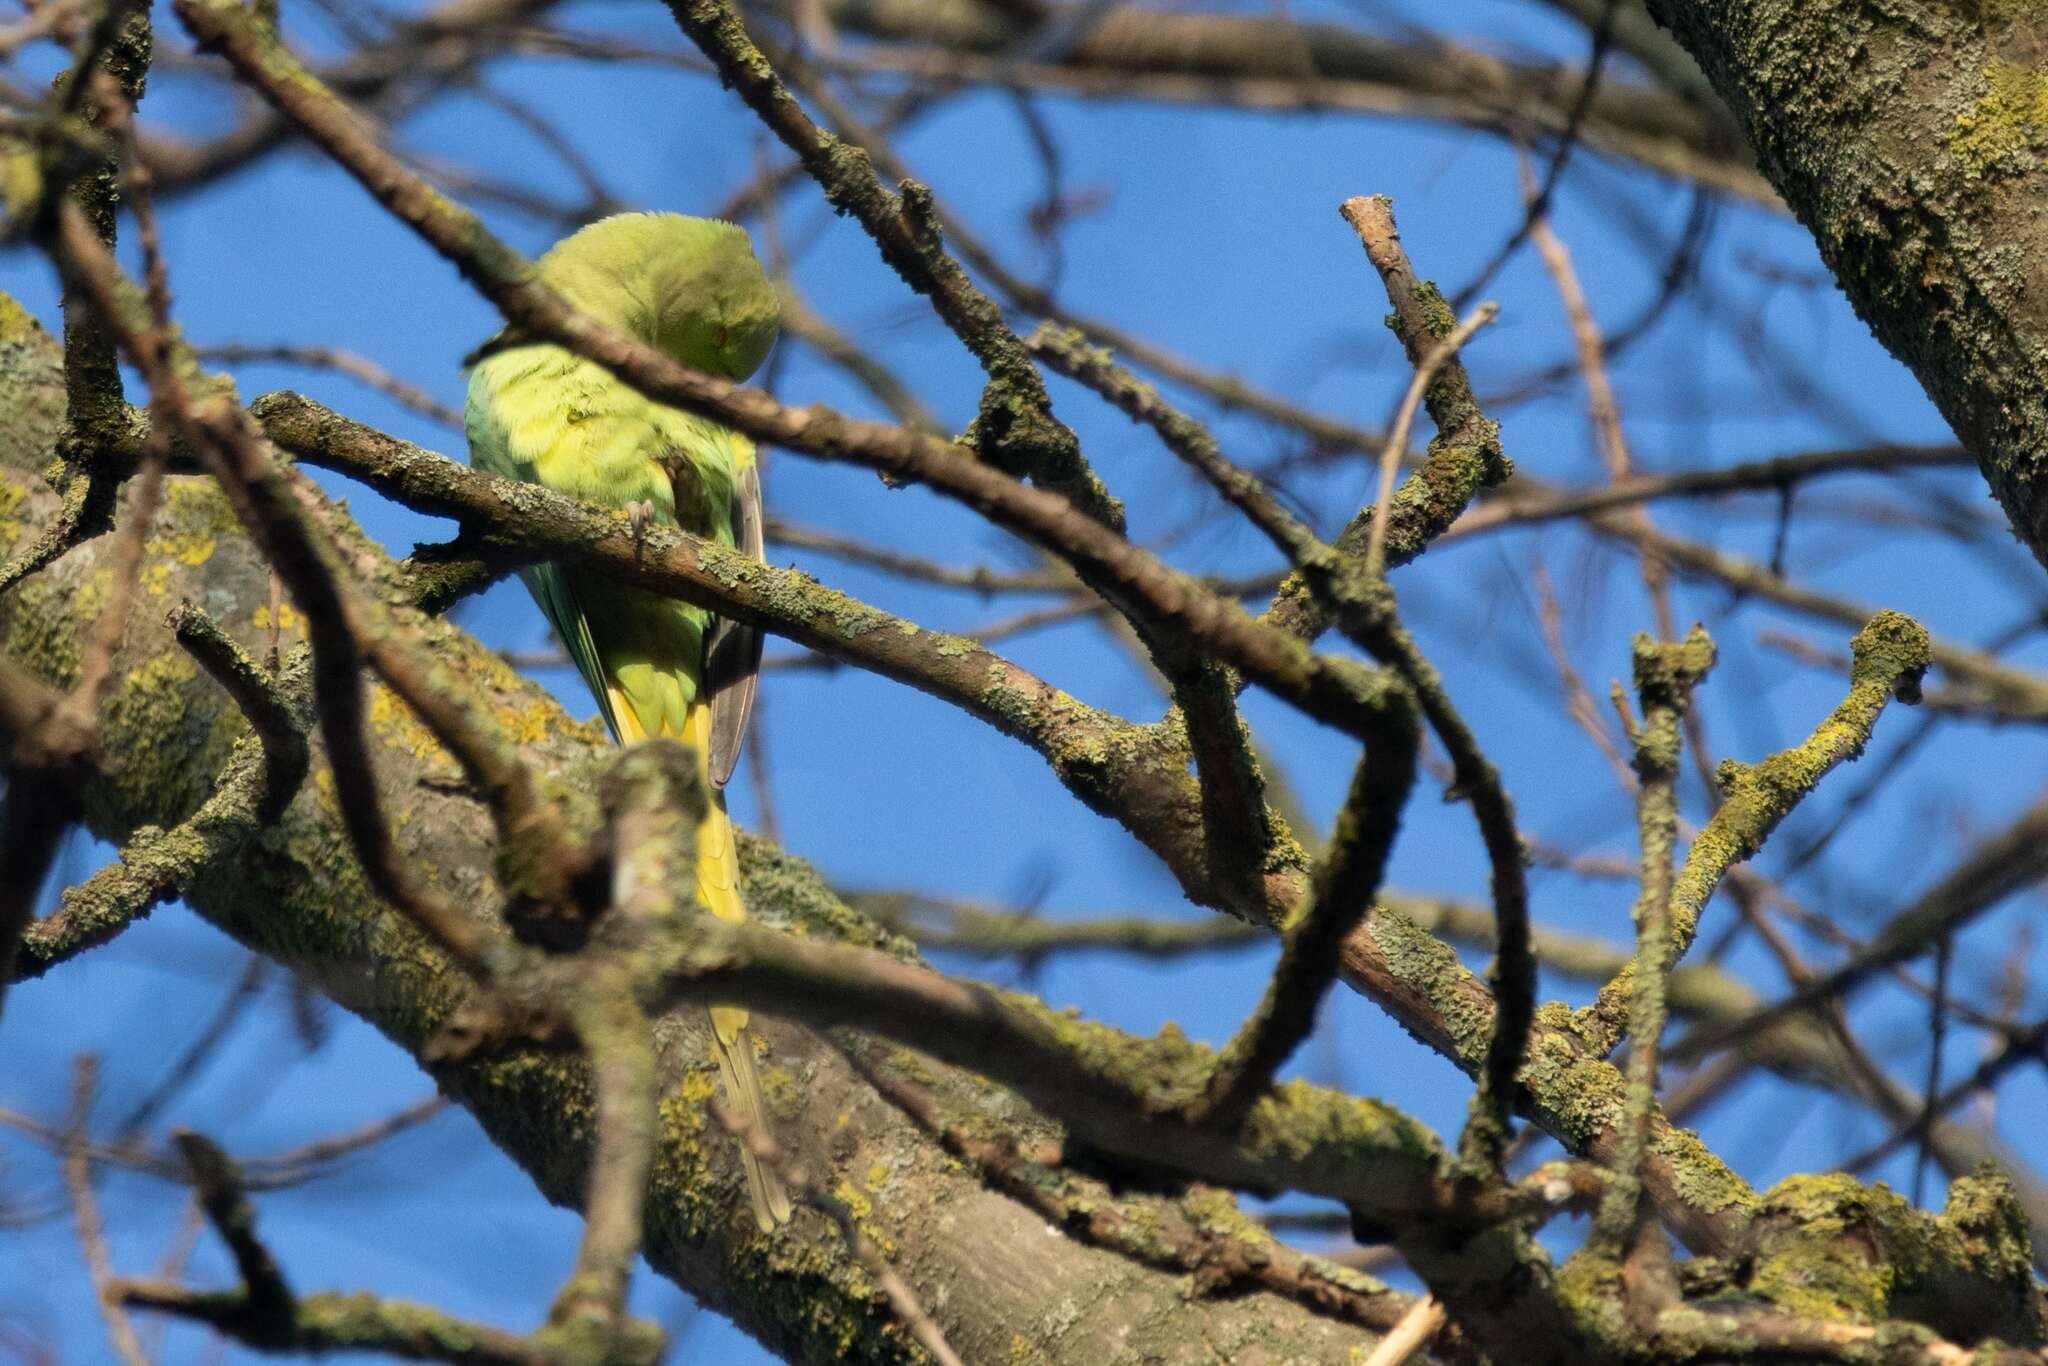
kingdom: Animalia
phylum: Chordata
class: Aves
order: Psittaciformes
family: Psittacidae
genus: Psittacula
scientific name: Psittacula krameri
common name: Rose-ringed parakeet
